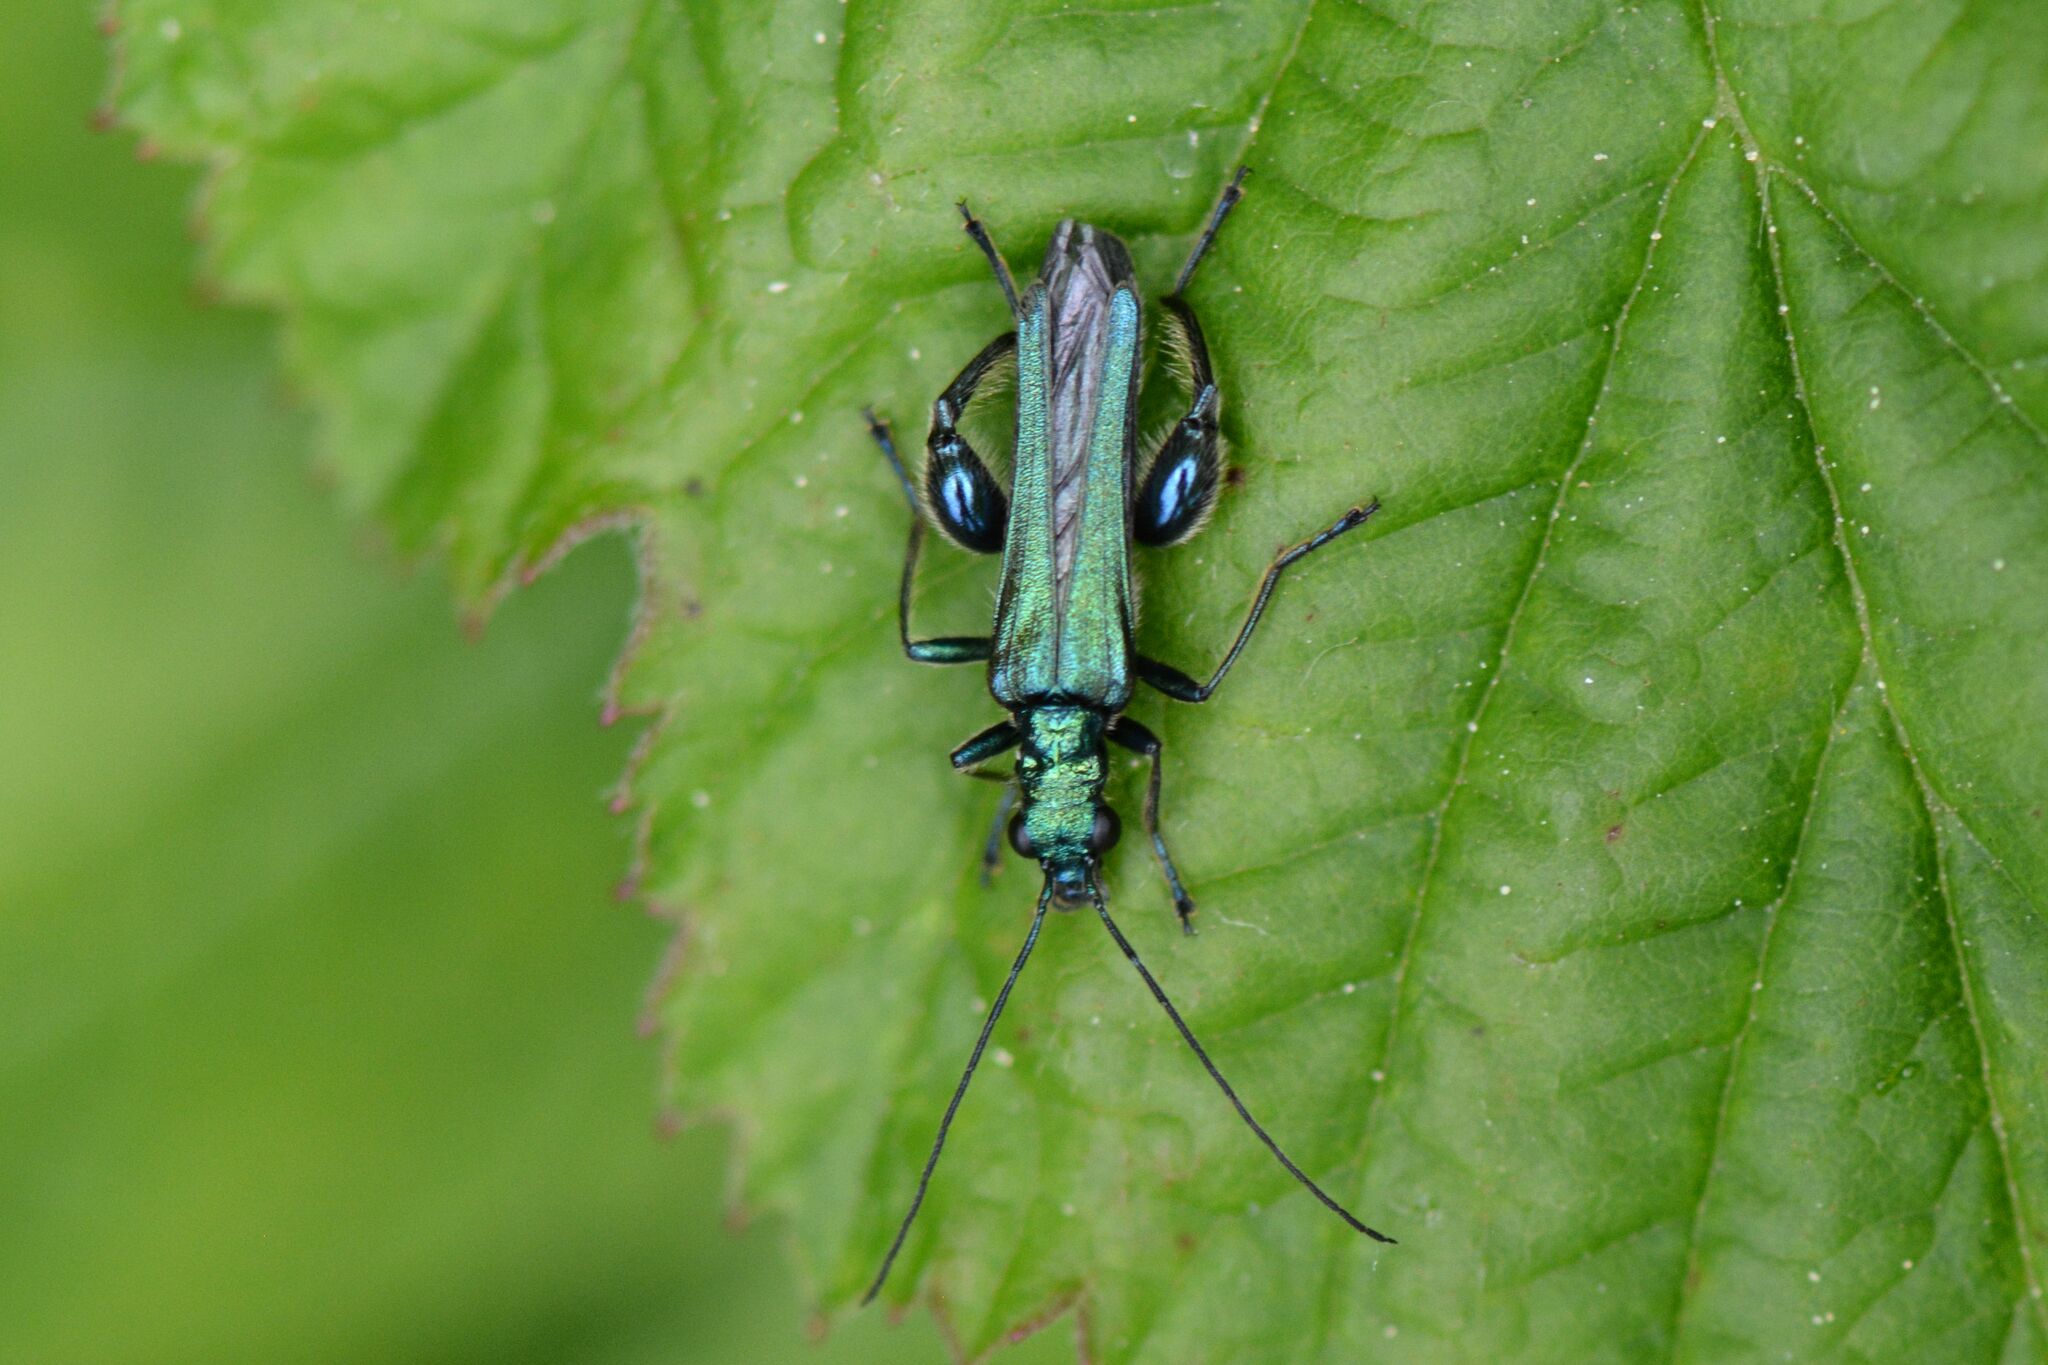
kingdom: Animalia
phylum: Arthropoda
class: Insecta
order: Coleoptera
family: Oedemeridae
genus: Oedemera
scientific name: Oedemera nobilis
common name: Swollen-thighed beetle
